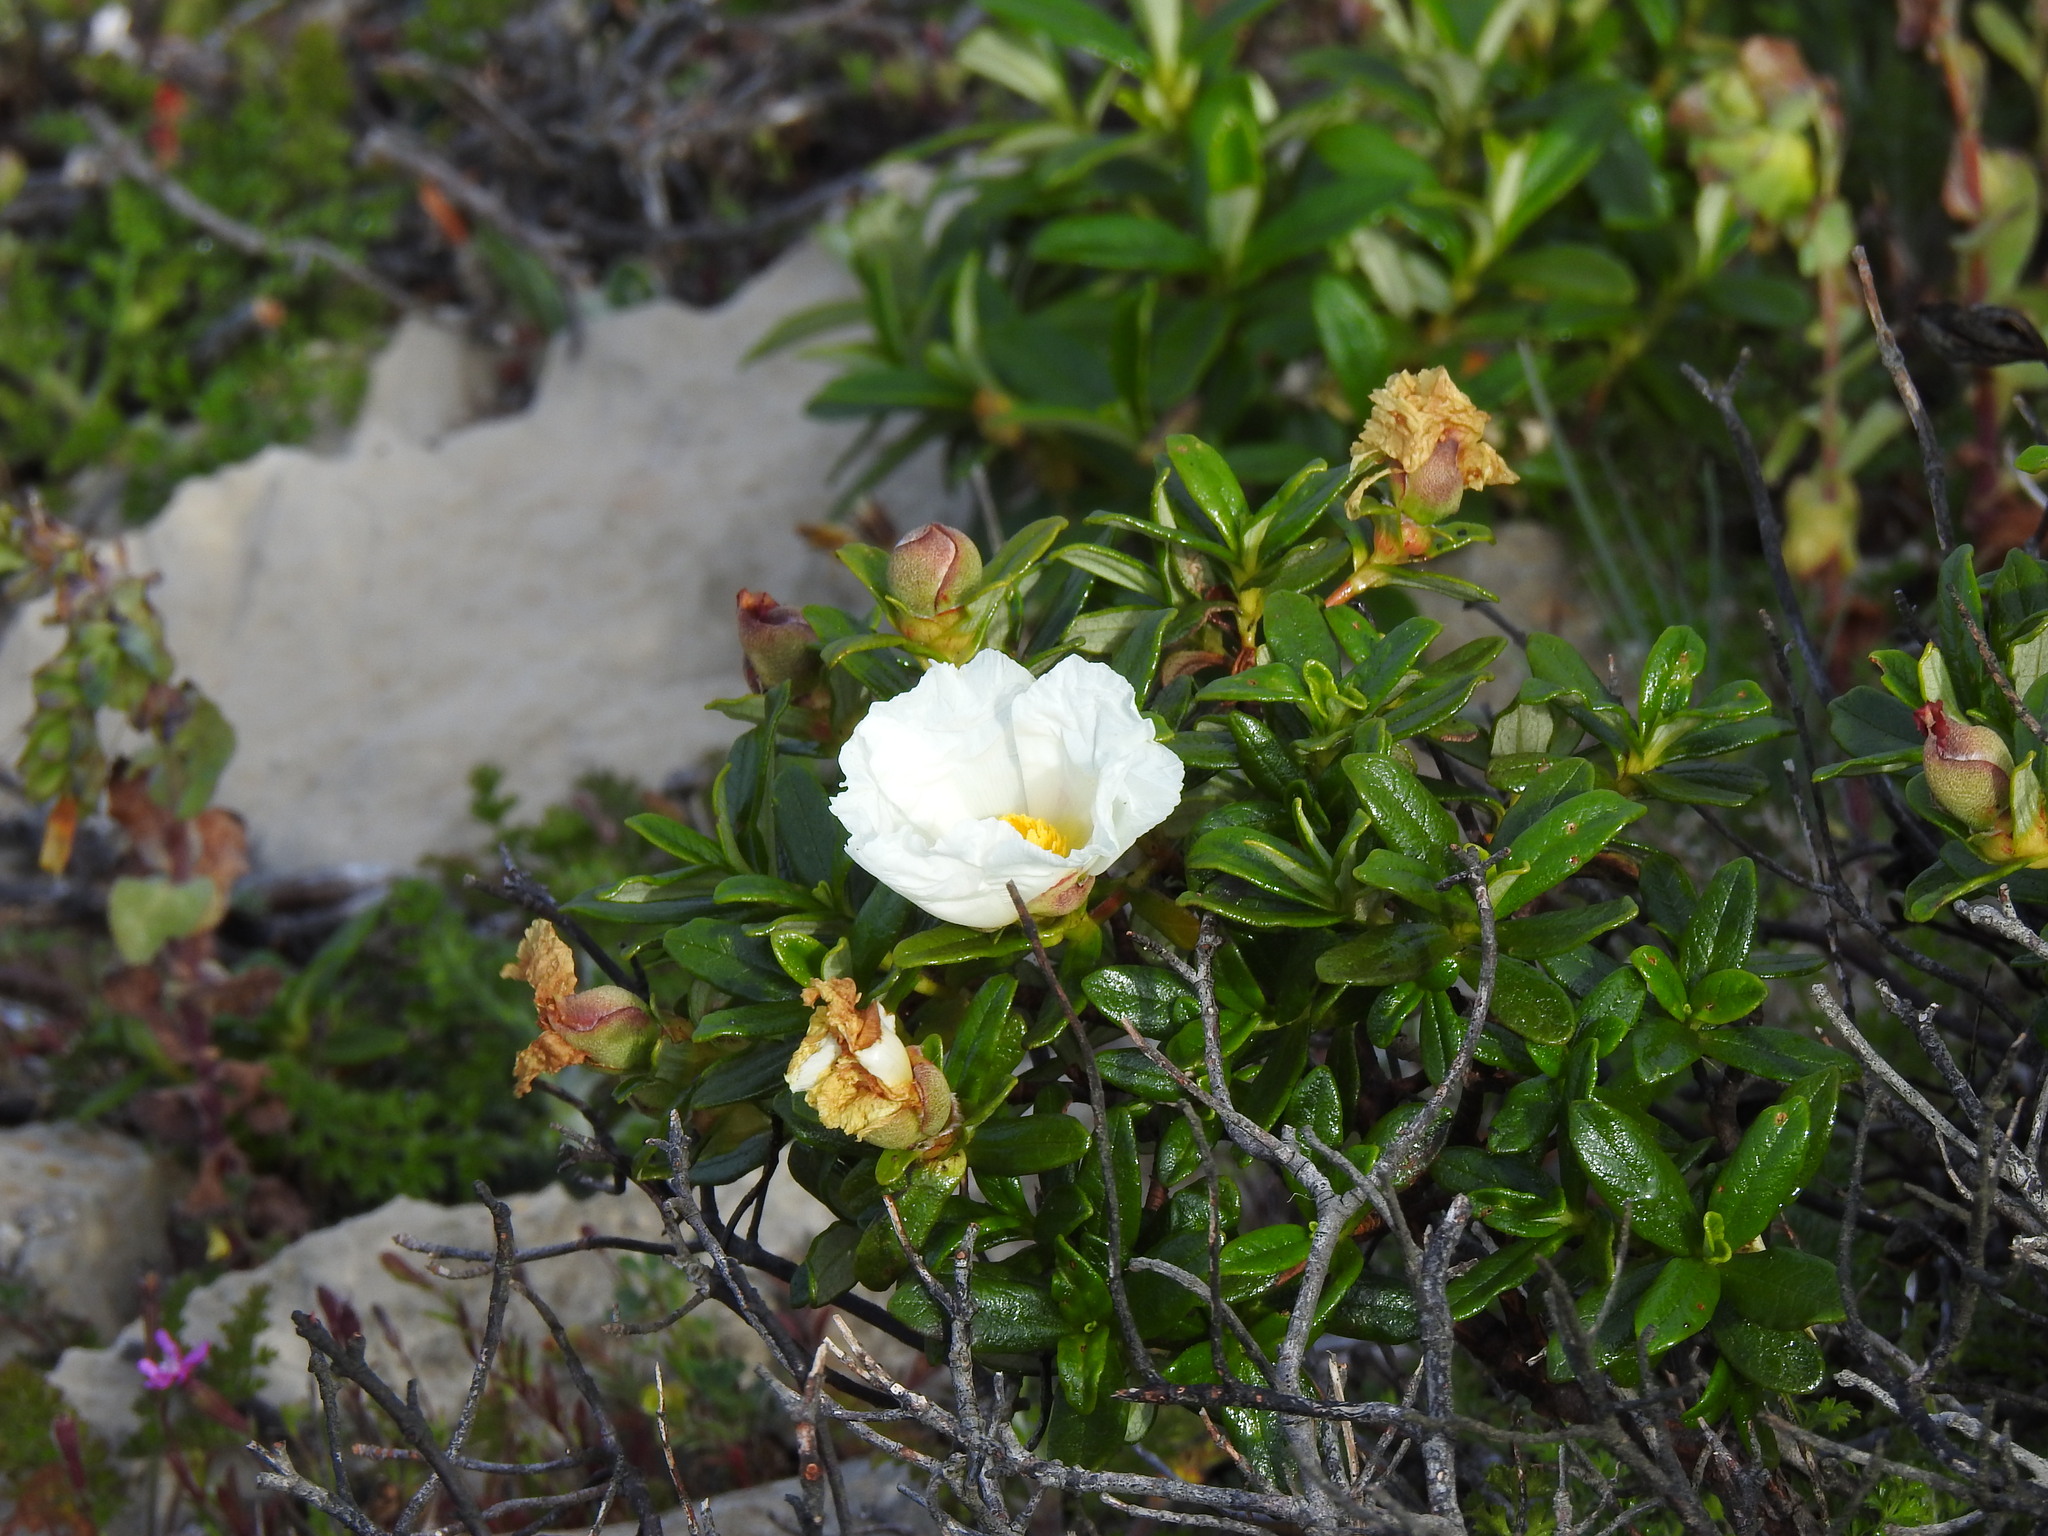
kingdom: Plantae
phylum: Tracheophyta
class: Magnoliopsida
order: Malvales
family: Cistaceae
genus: Cistus
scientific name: Cistus ladanifer
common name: Common gum cistus
